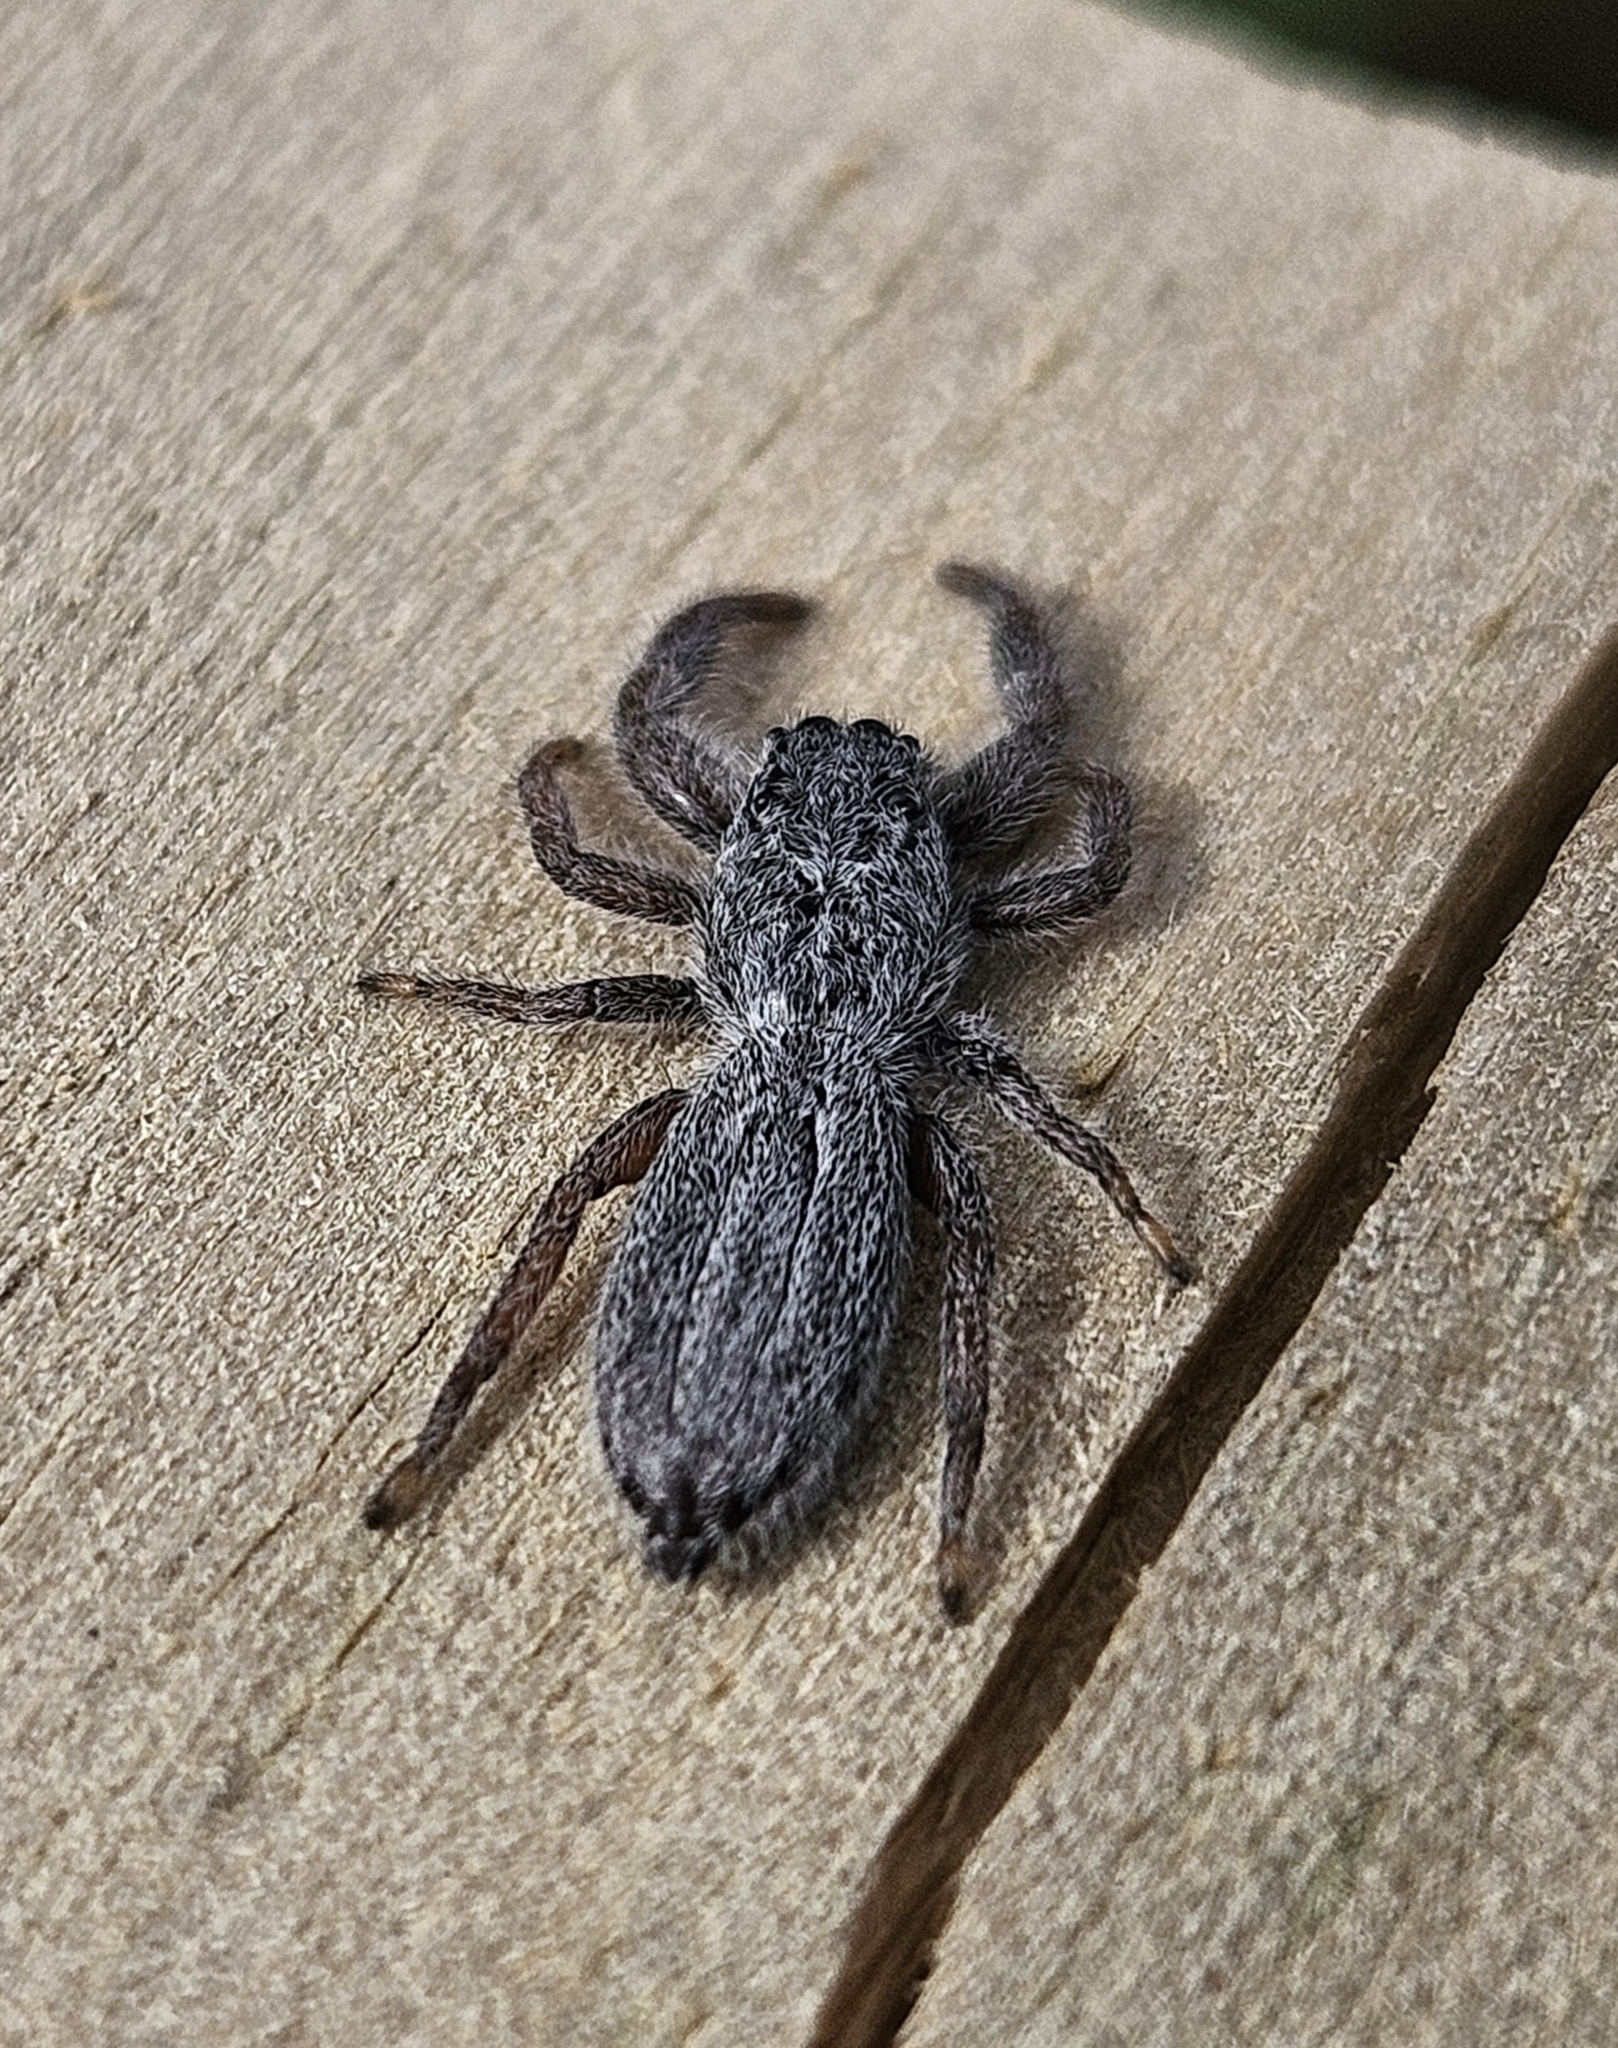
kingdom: Animalia
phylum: Arthropoda
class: Arachnida
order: Araneae
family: Salticidae
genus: Holoplatys
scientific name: Holoplatys apressus
